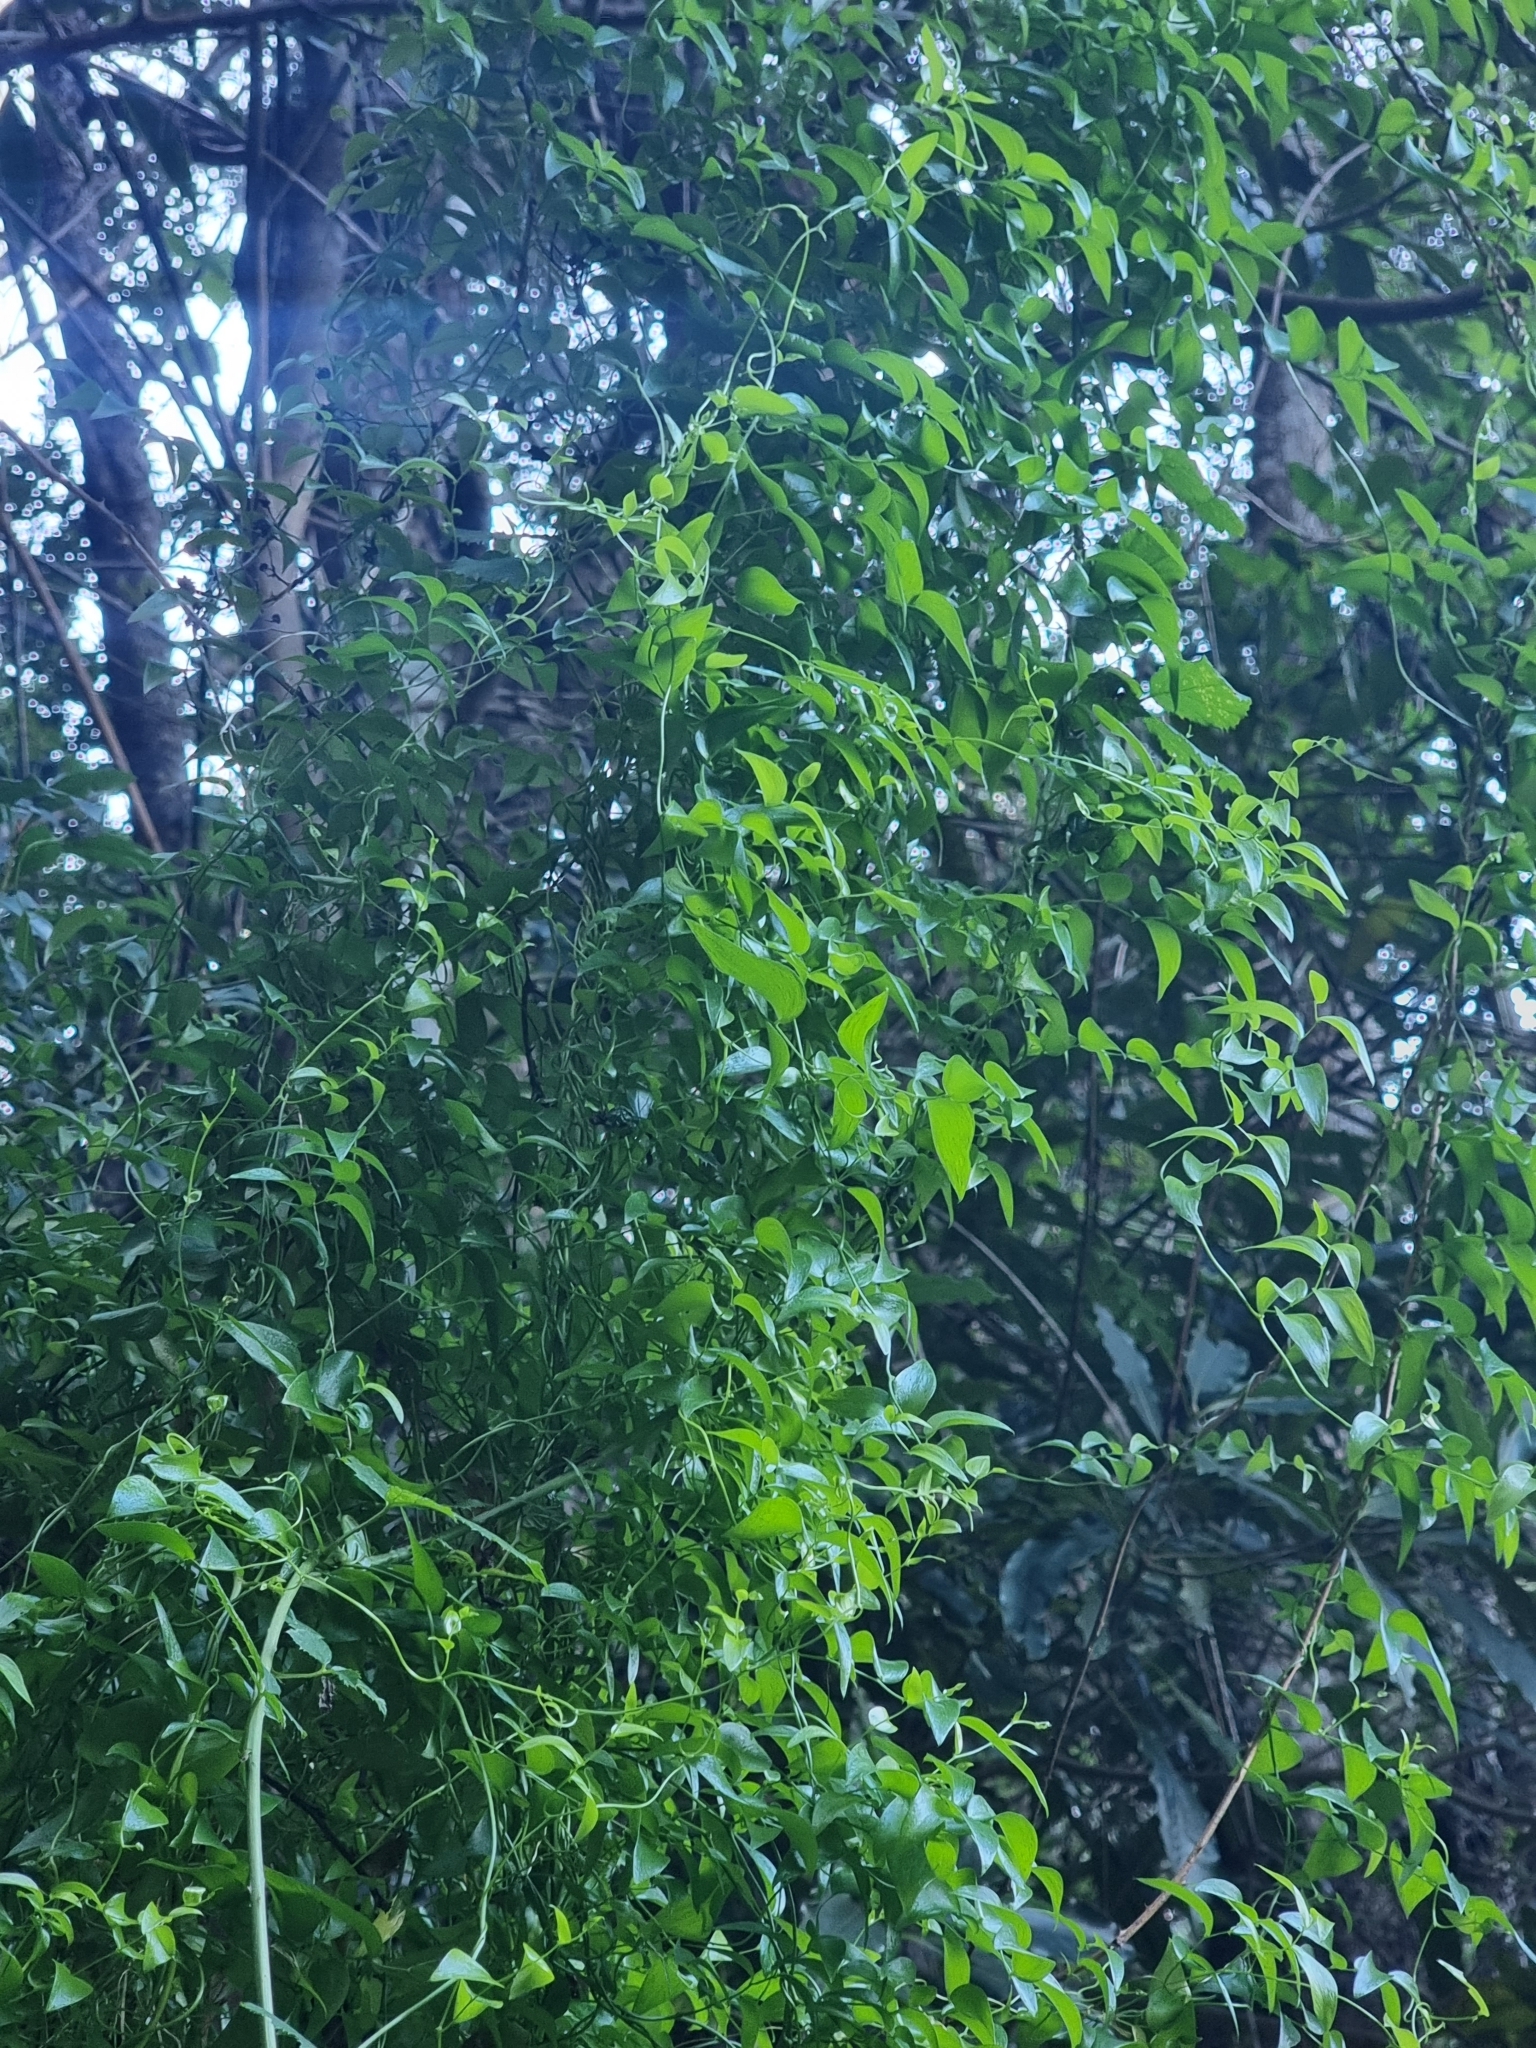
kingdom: Plantae
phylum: Tracheophyta
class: Liliopsida
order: Asparagales
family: Asparagaceae
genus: Asparagus
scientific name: Asparagus asparagoides
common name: African asparagus fern
